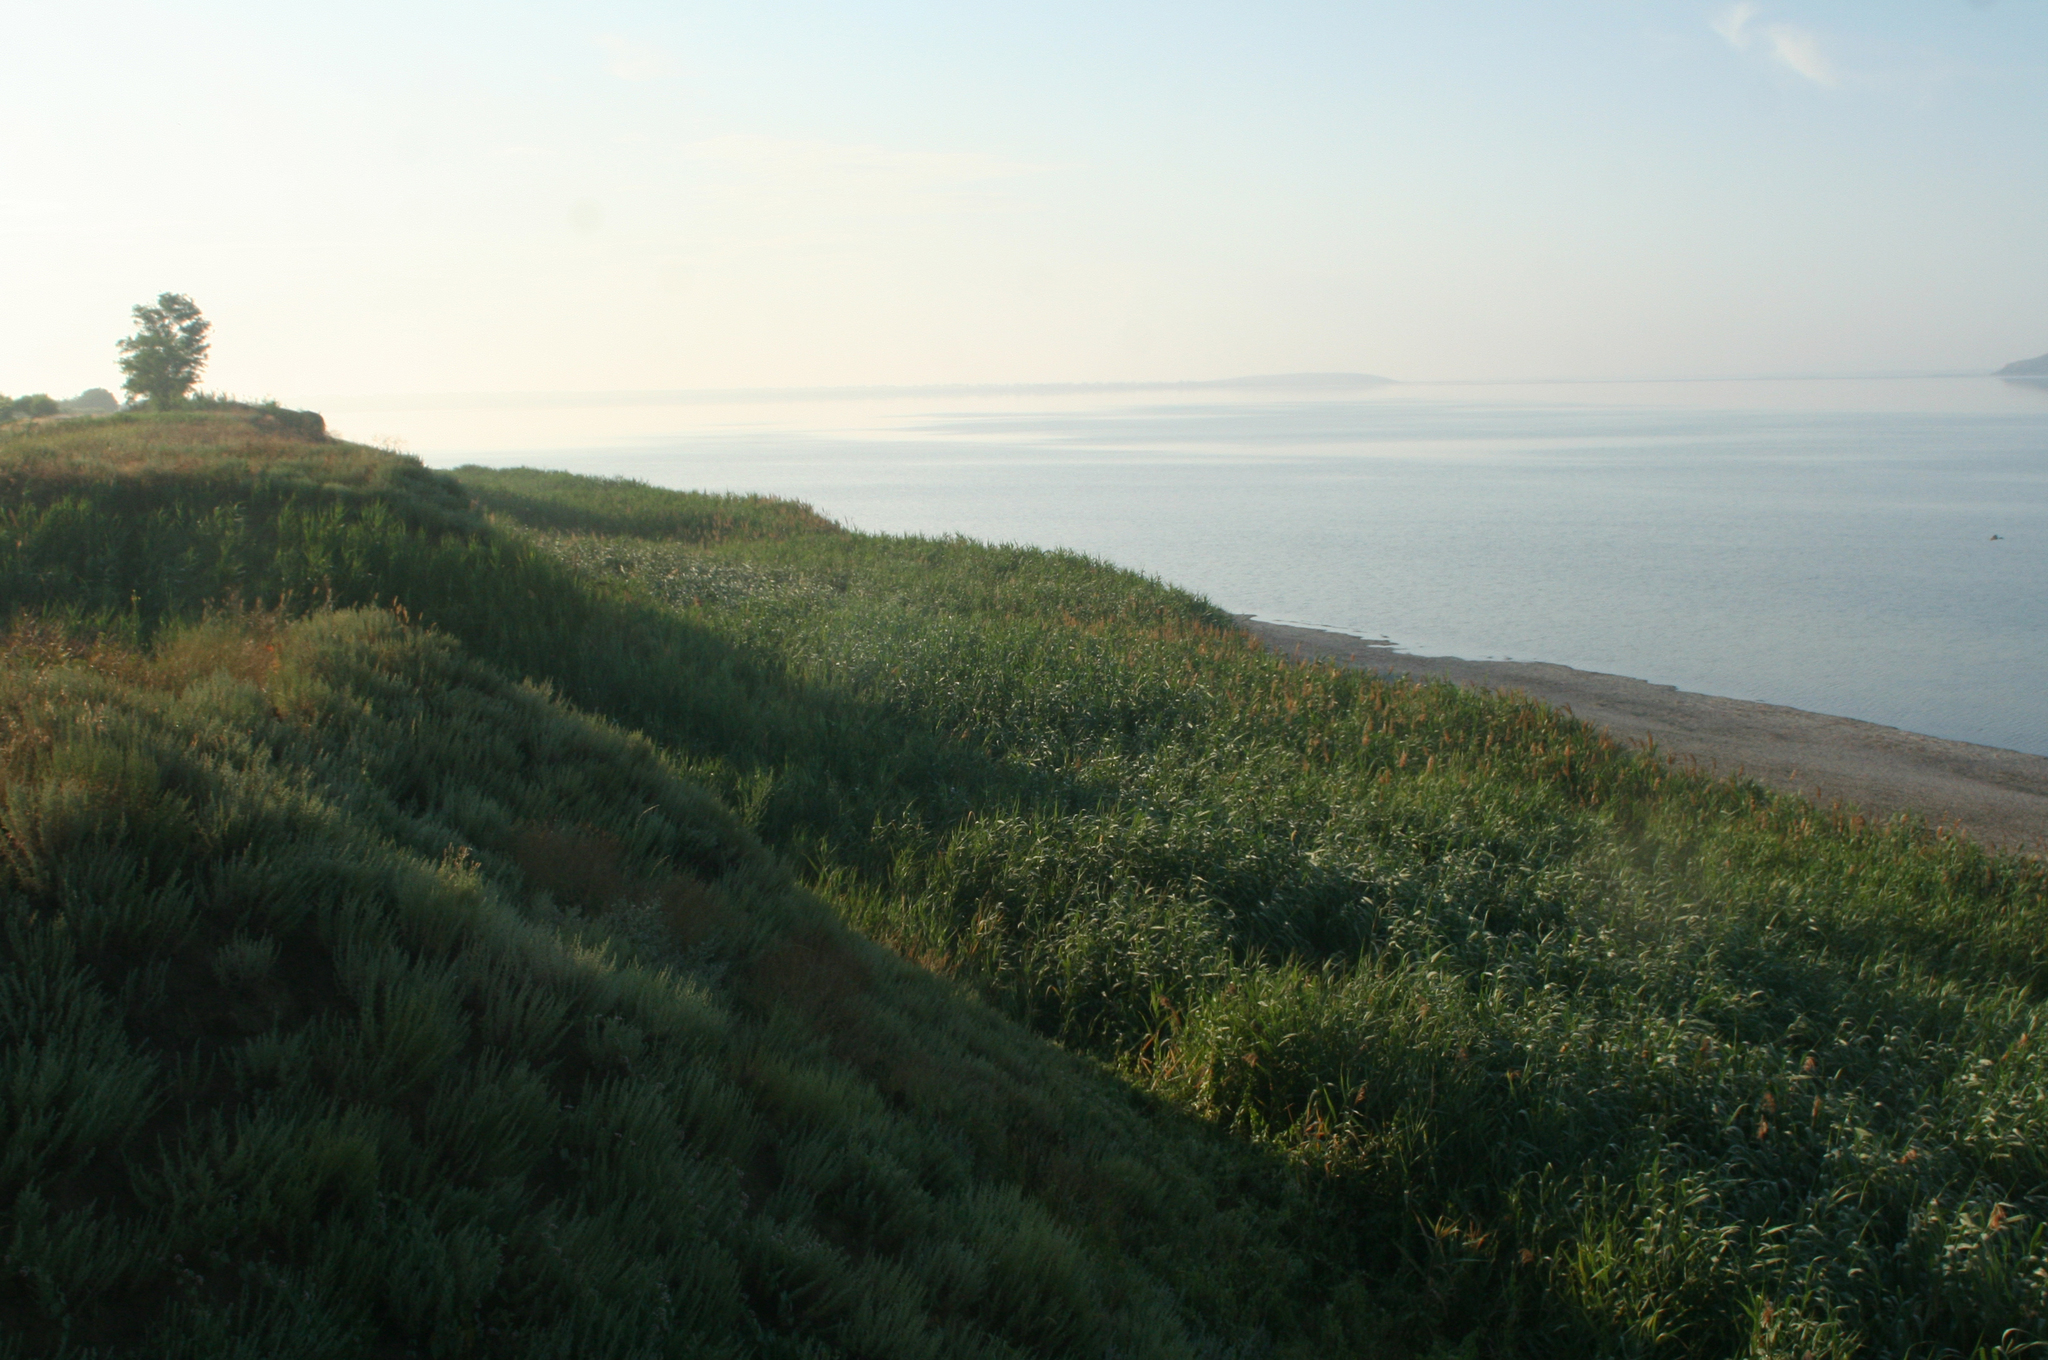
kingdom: Plantae
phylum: Tracheophyta
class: Liliopsida
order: Poales
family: Poaceae
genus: Phragmites
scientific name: Phragmites australis
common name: Common reed
